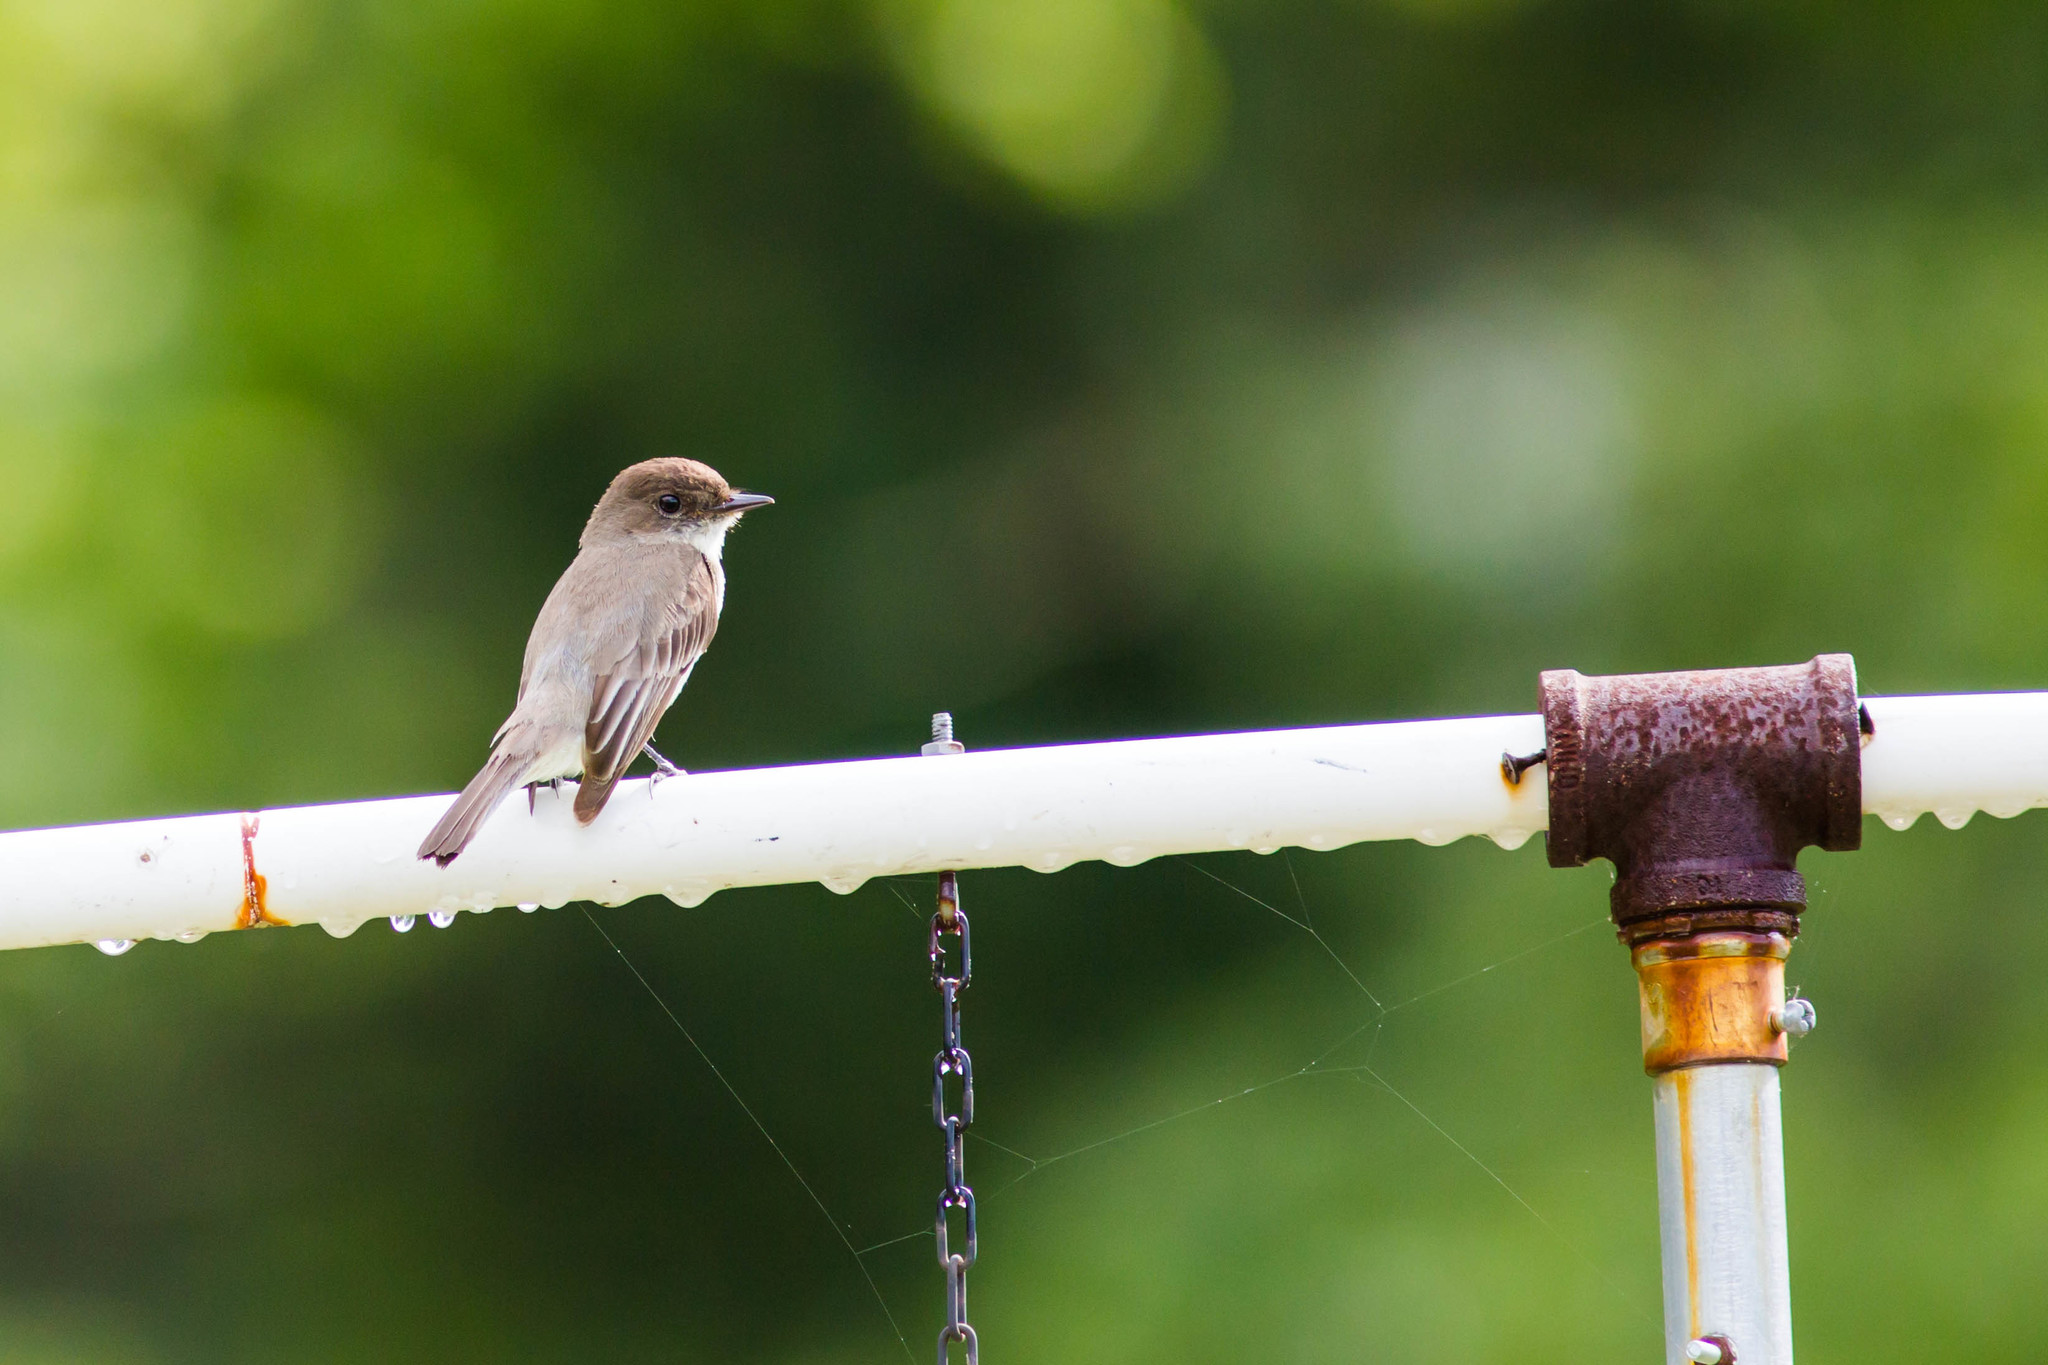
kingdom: Animalia
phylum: Chordata
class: Aves
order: Passeriformes
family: Tyrannidae
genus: Sayornis
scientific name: Sayornis phoebe
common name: Eastern phoebe
